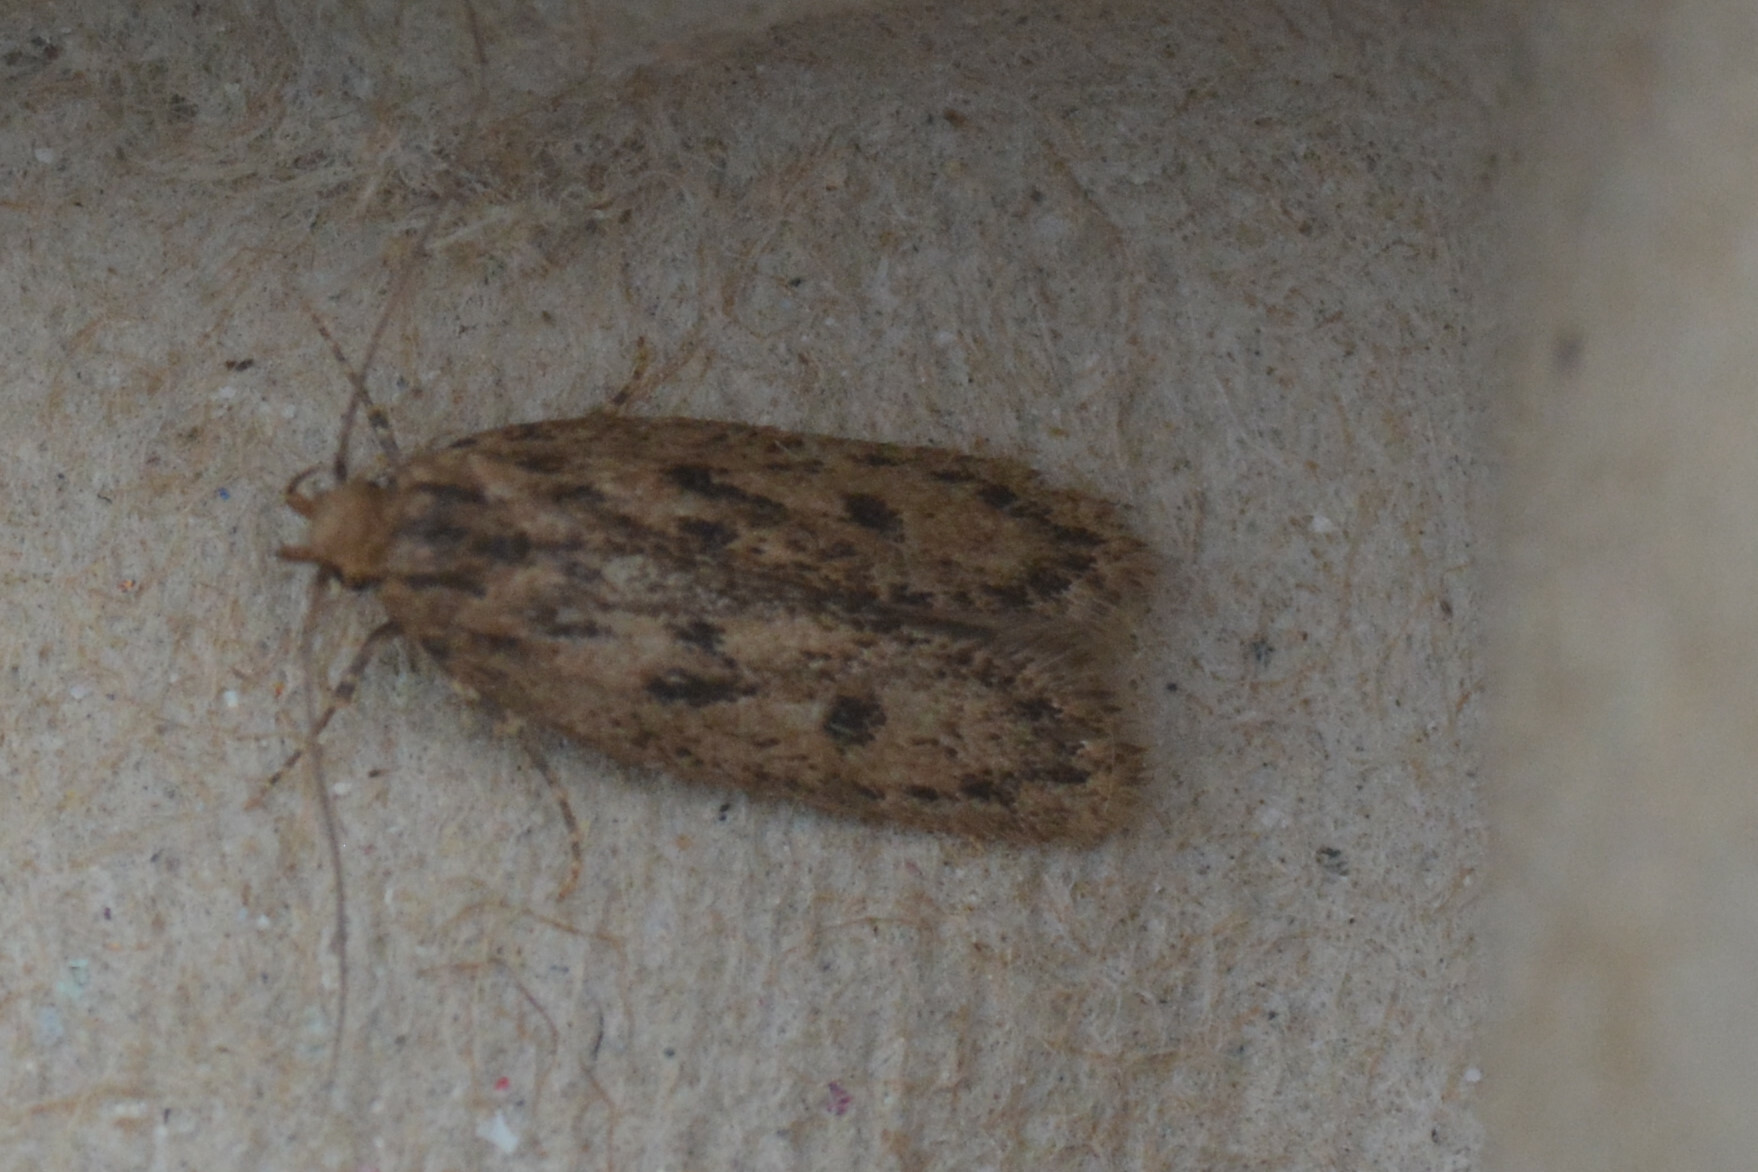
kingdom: Animalia
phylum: Arthropoda
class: Insecta
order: Lepidoptera
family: Oecophoridae
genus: Hofmannophila
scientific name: Hofmannophila pseudospretella
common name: Brown house moth
